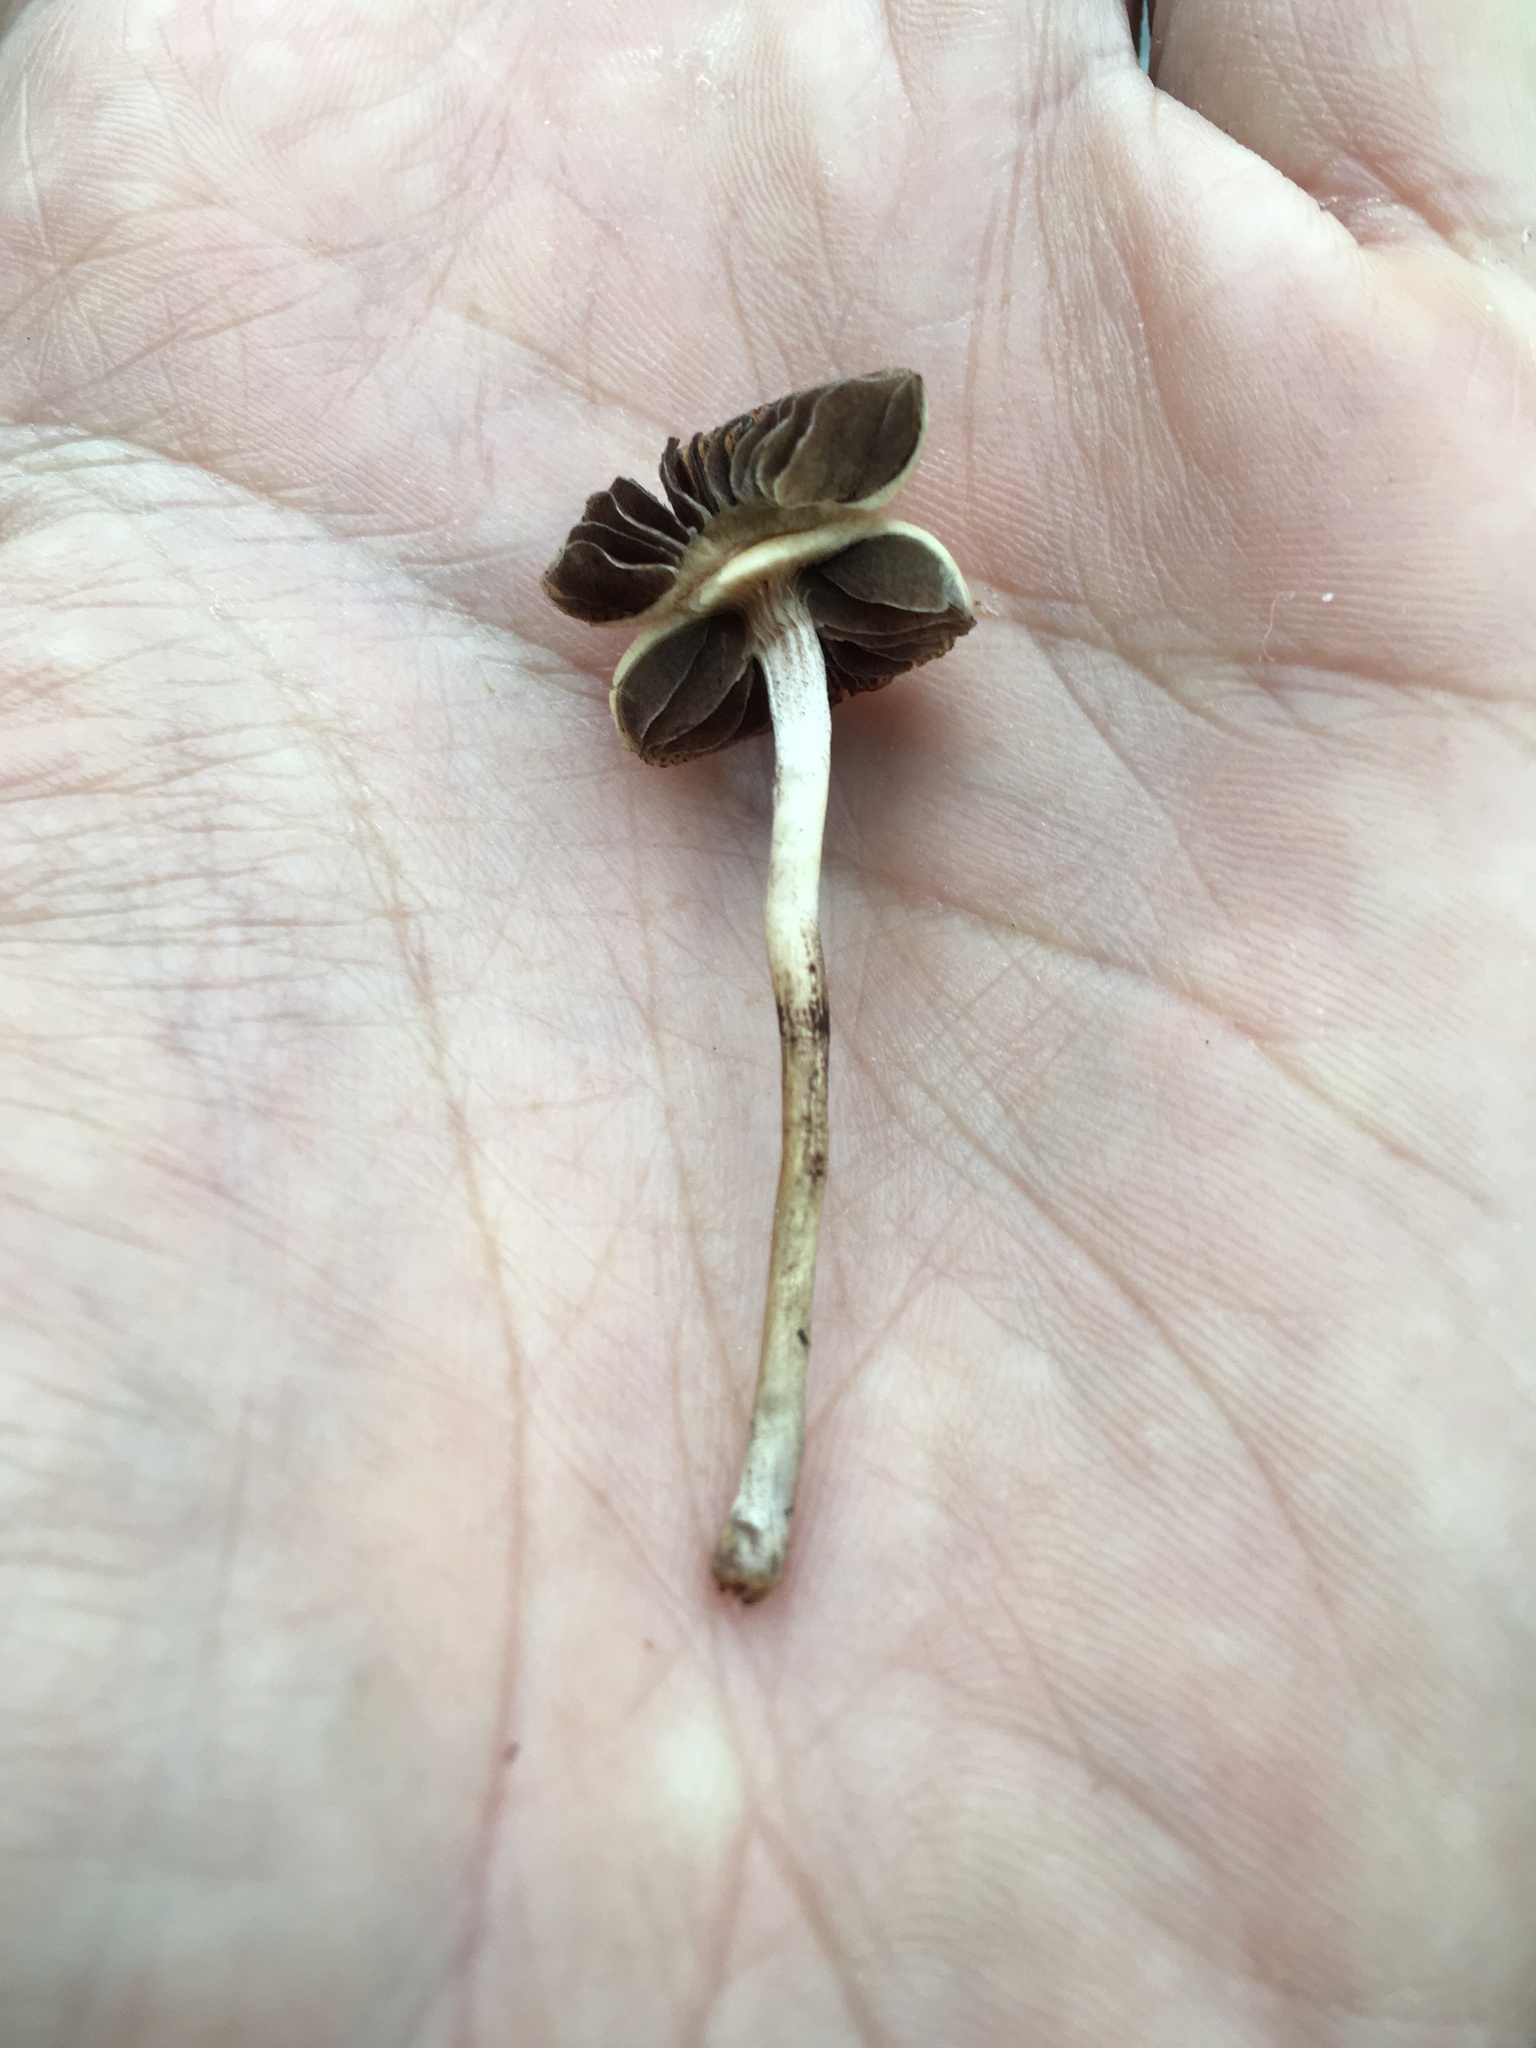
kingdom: Fungi
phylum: Basidiomycota
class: Agaricomycetes
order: Agaricales
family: Hymenogastraceae
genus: Psilocybe
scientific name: Psilocybe fimetaria
